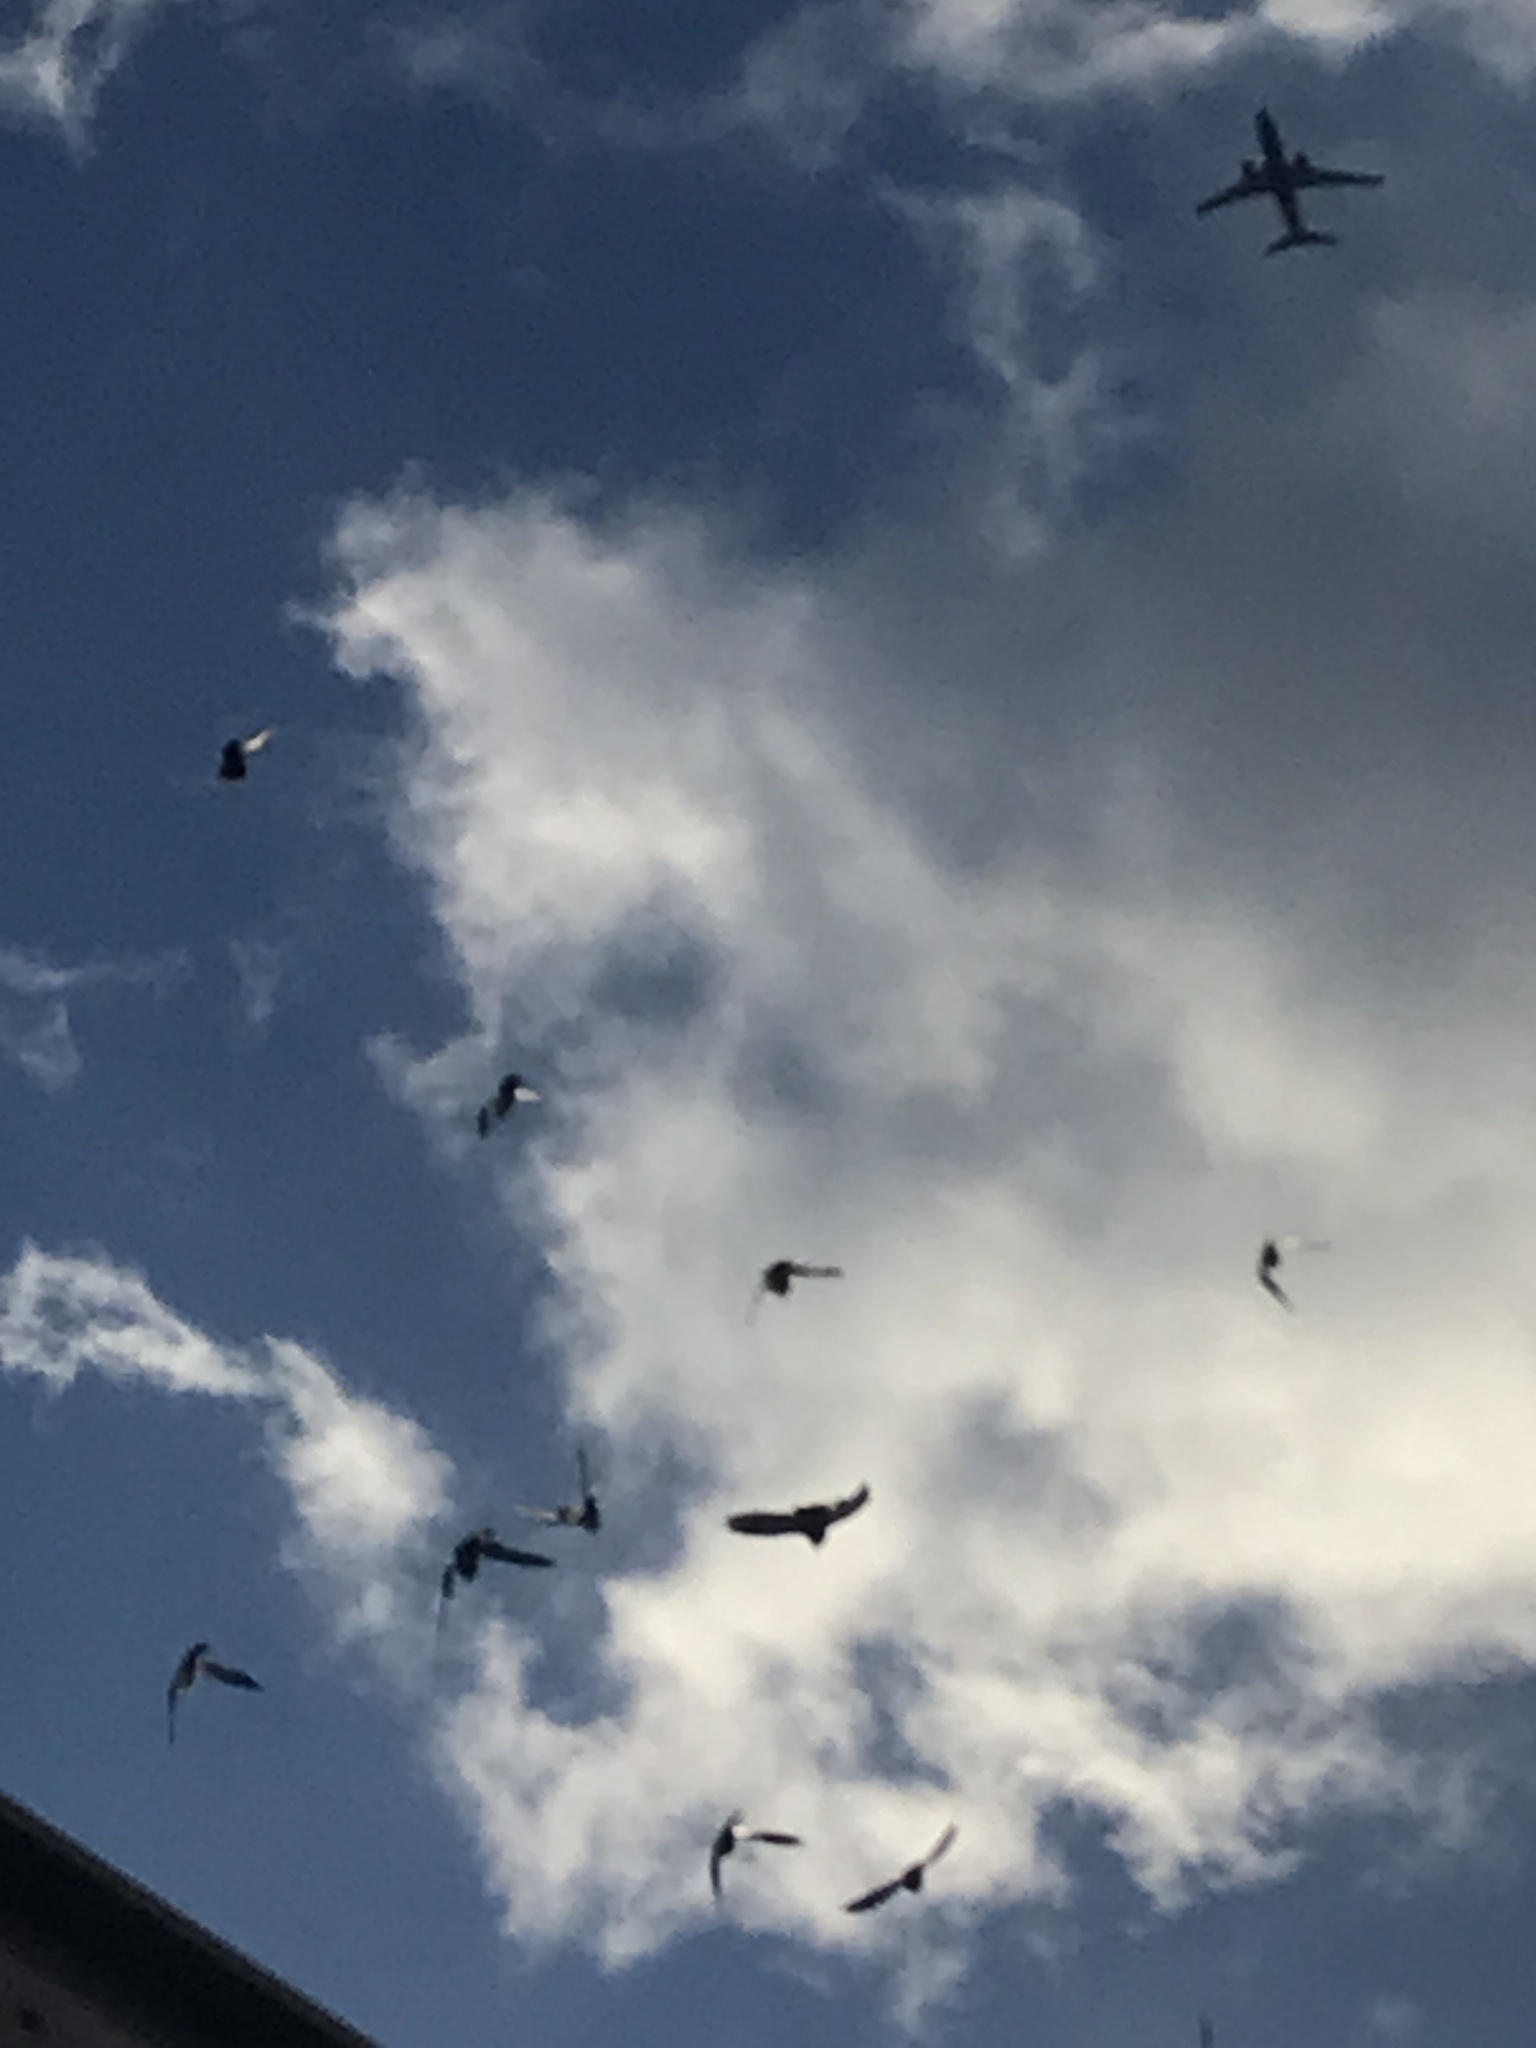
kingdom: Animalia
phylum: Chordata
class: Aves
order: Columbiformes
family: Columbidae
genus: Columba
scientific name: Columba livia
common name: Rock pigeon
